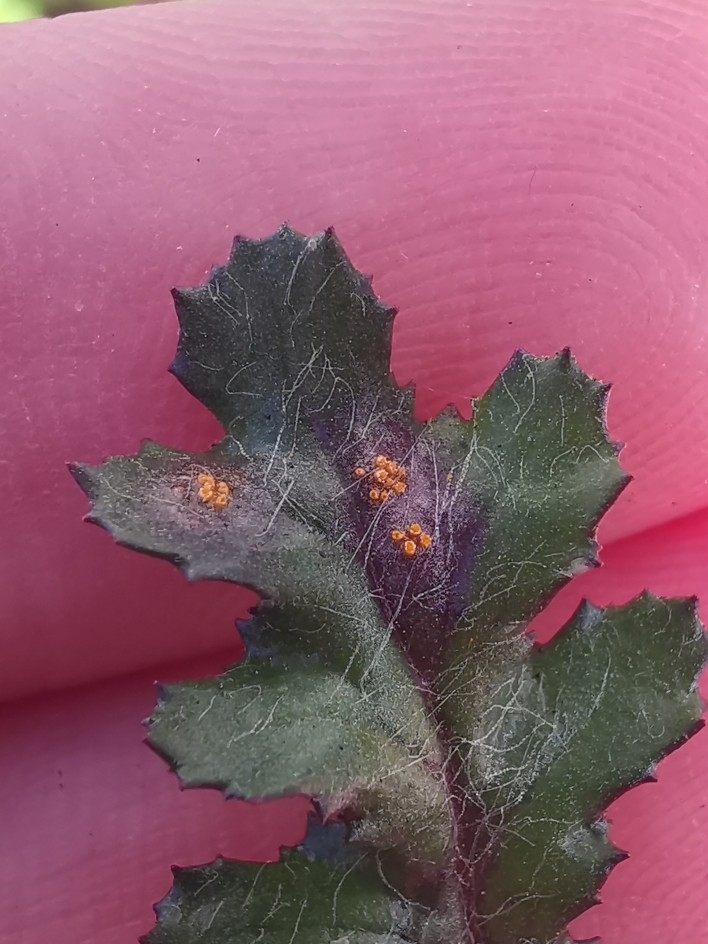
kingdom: Fungi
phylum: Basidiomycota
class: Pucciniomycetes
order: Pucciniales
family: Pucciniaceae
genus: Puccinia
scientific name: Puccinia lagenophorae
